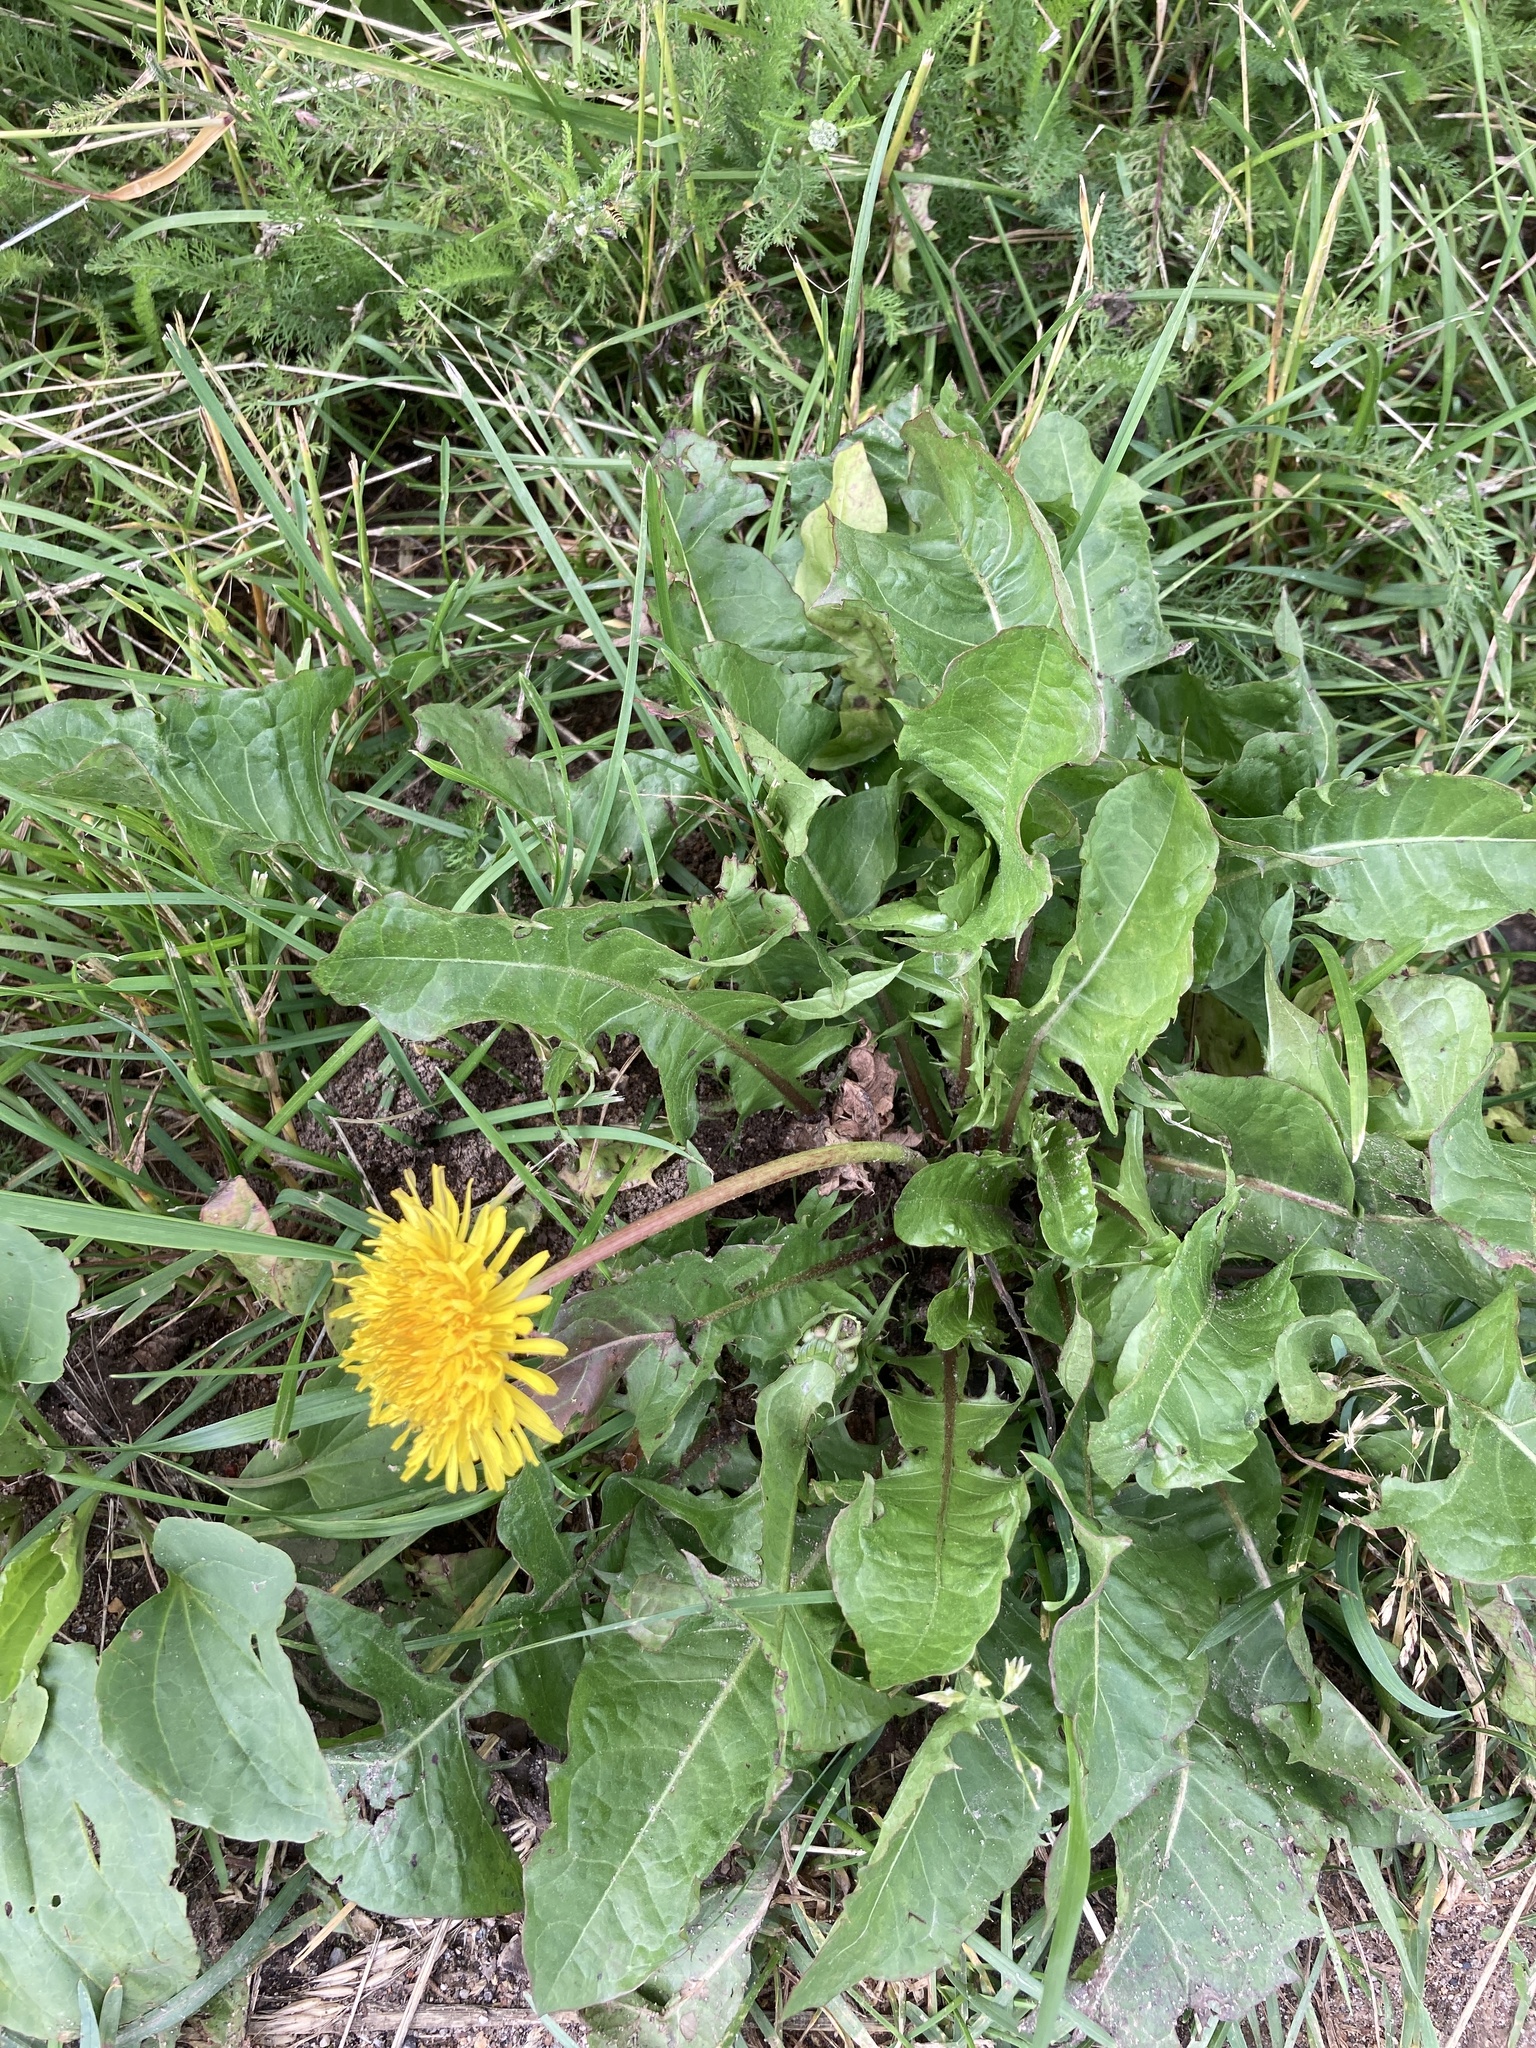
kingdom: Plantae
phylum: Tracheophyta
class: Magnoliopsida
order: Asterales
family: Asteraceae
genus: Taraxacum
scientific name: Taraxacum officinale
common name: Common dandelion
